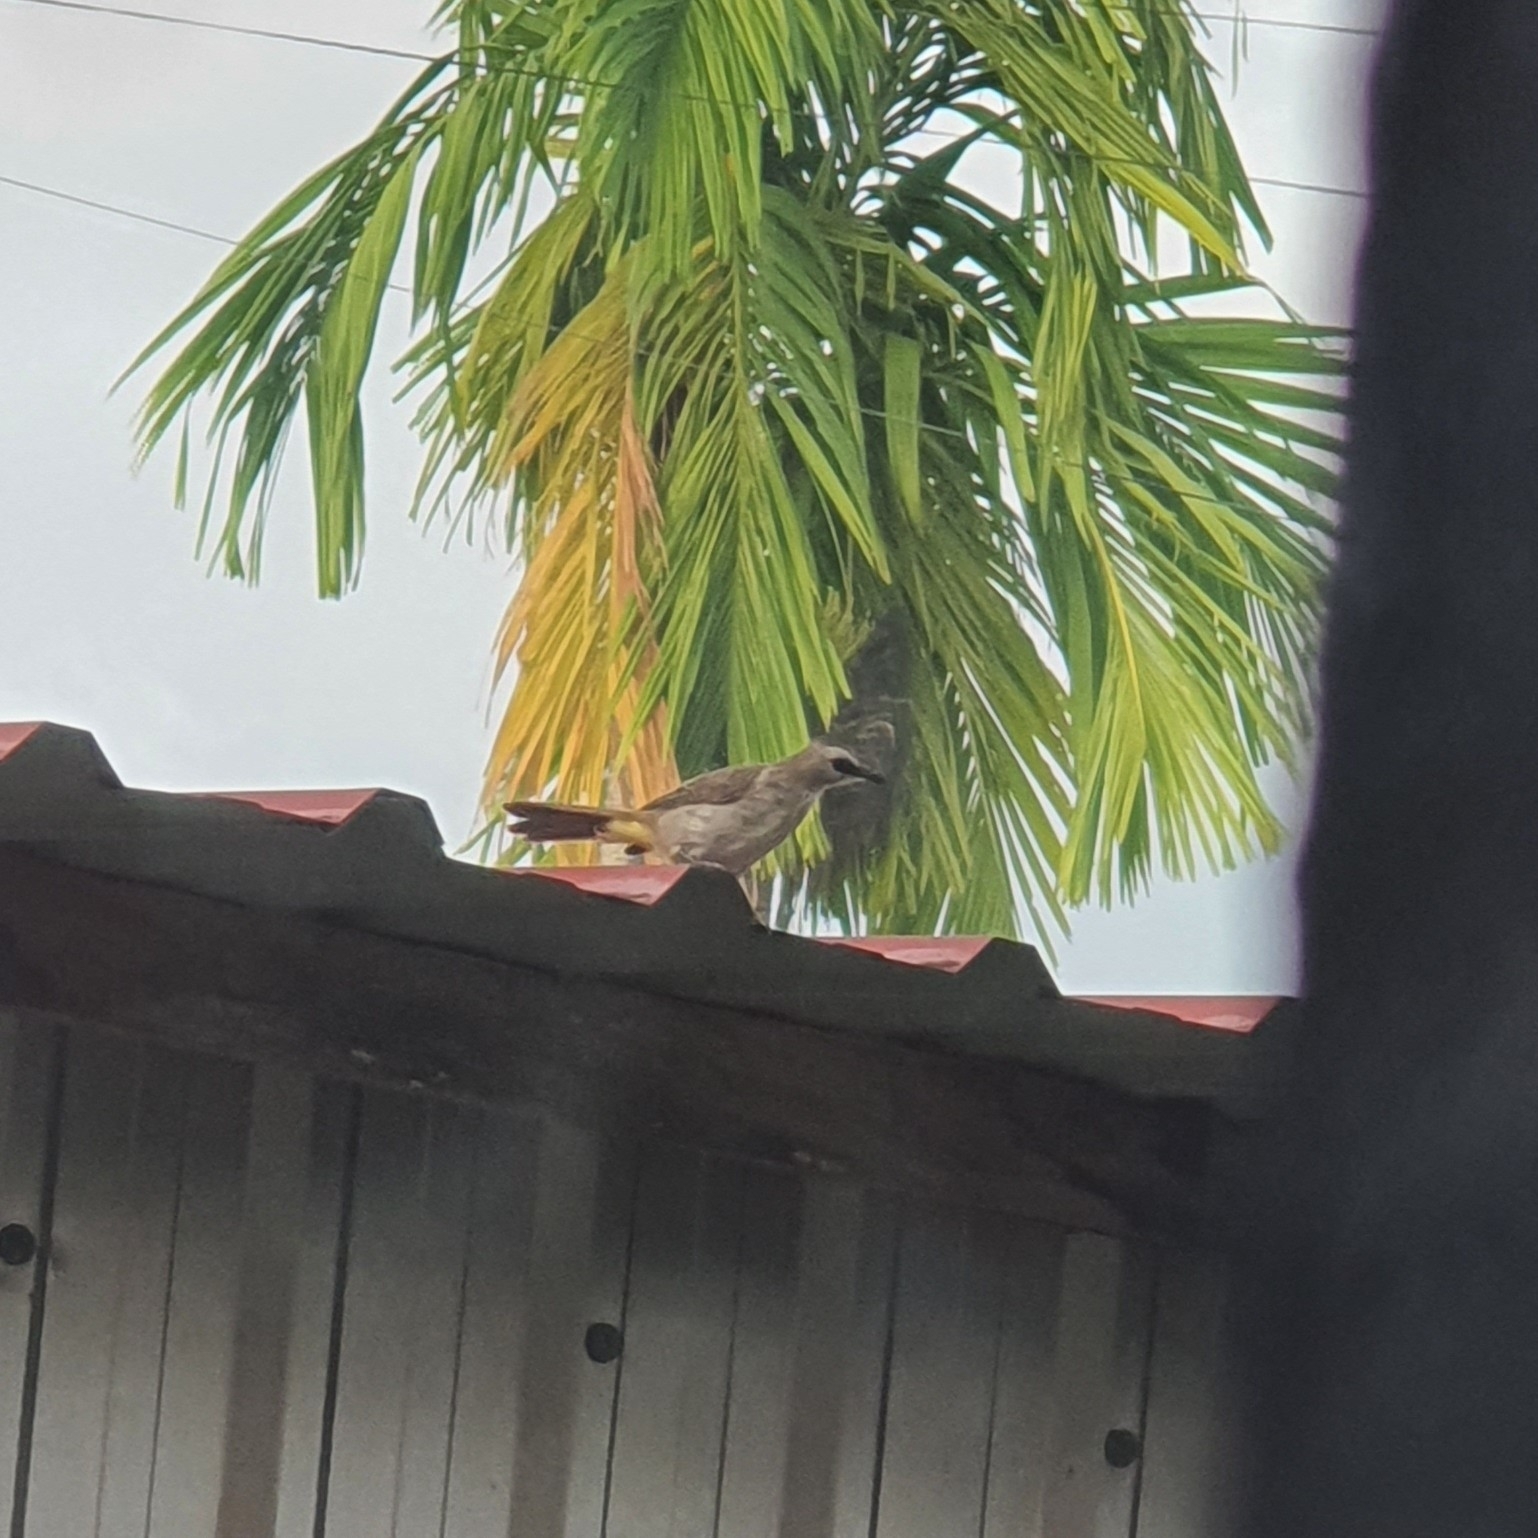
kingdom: Animalia
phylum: Chordata
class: Aves
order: Passeriformes
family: Pycnonotidae
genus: Pycnonotus
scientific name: Pycnonotus goiavier
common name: Yellow-vented bulbul
